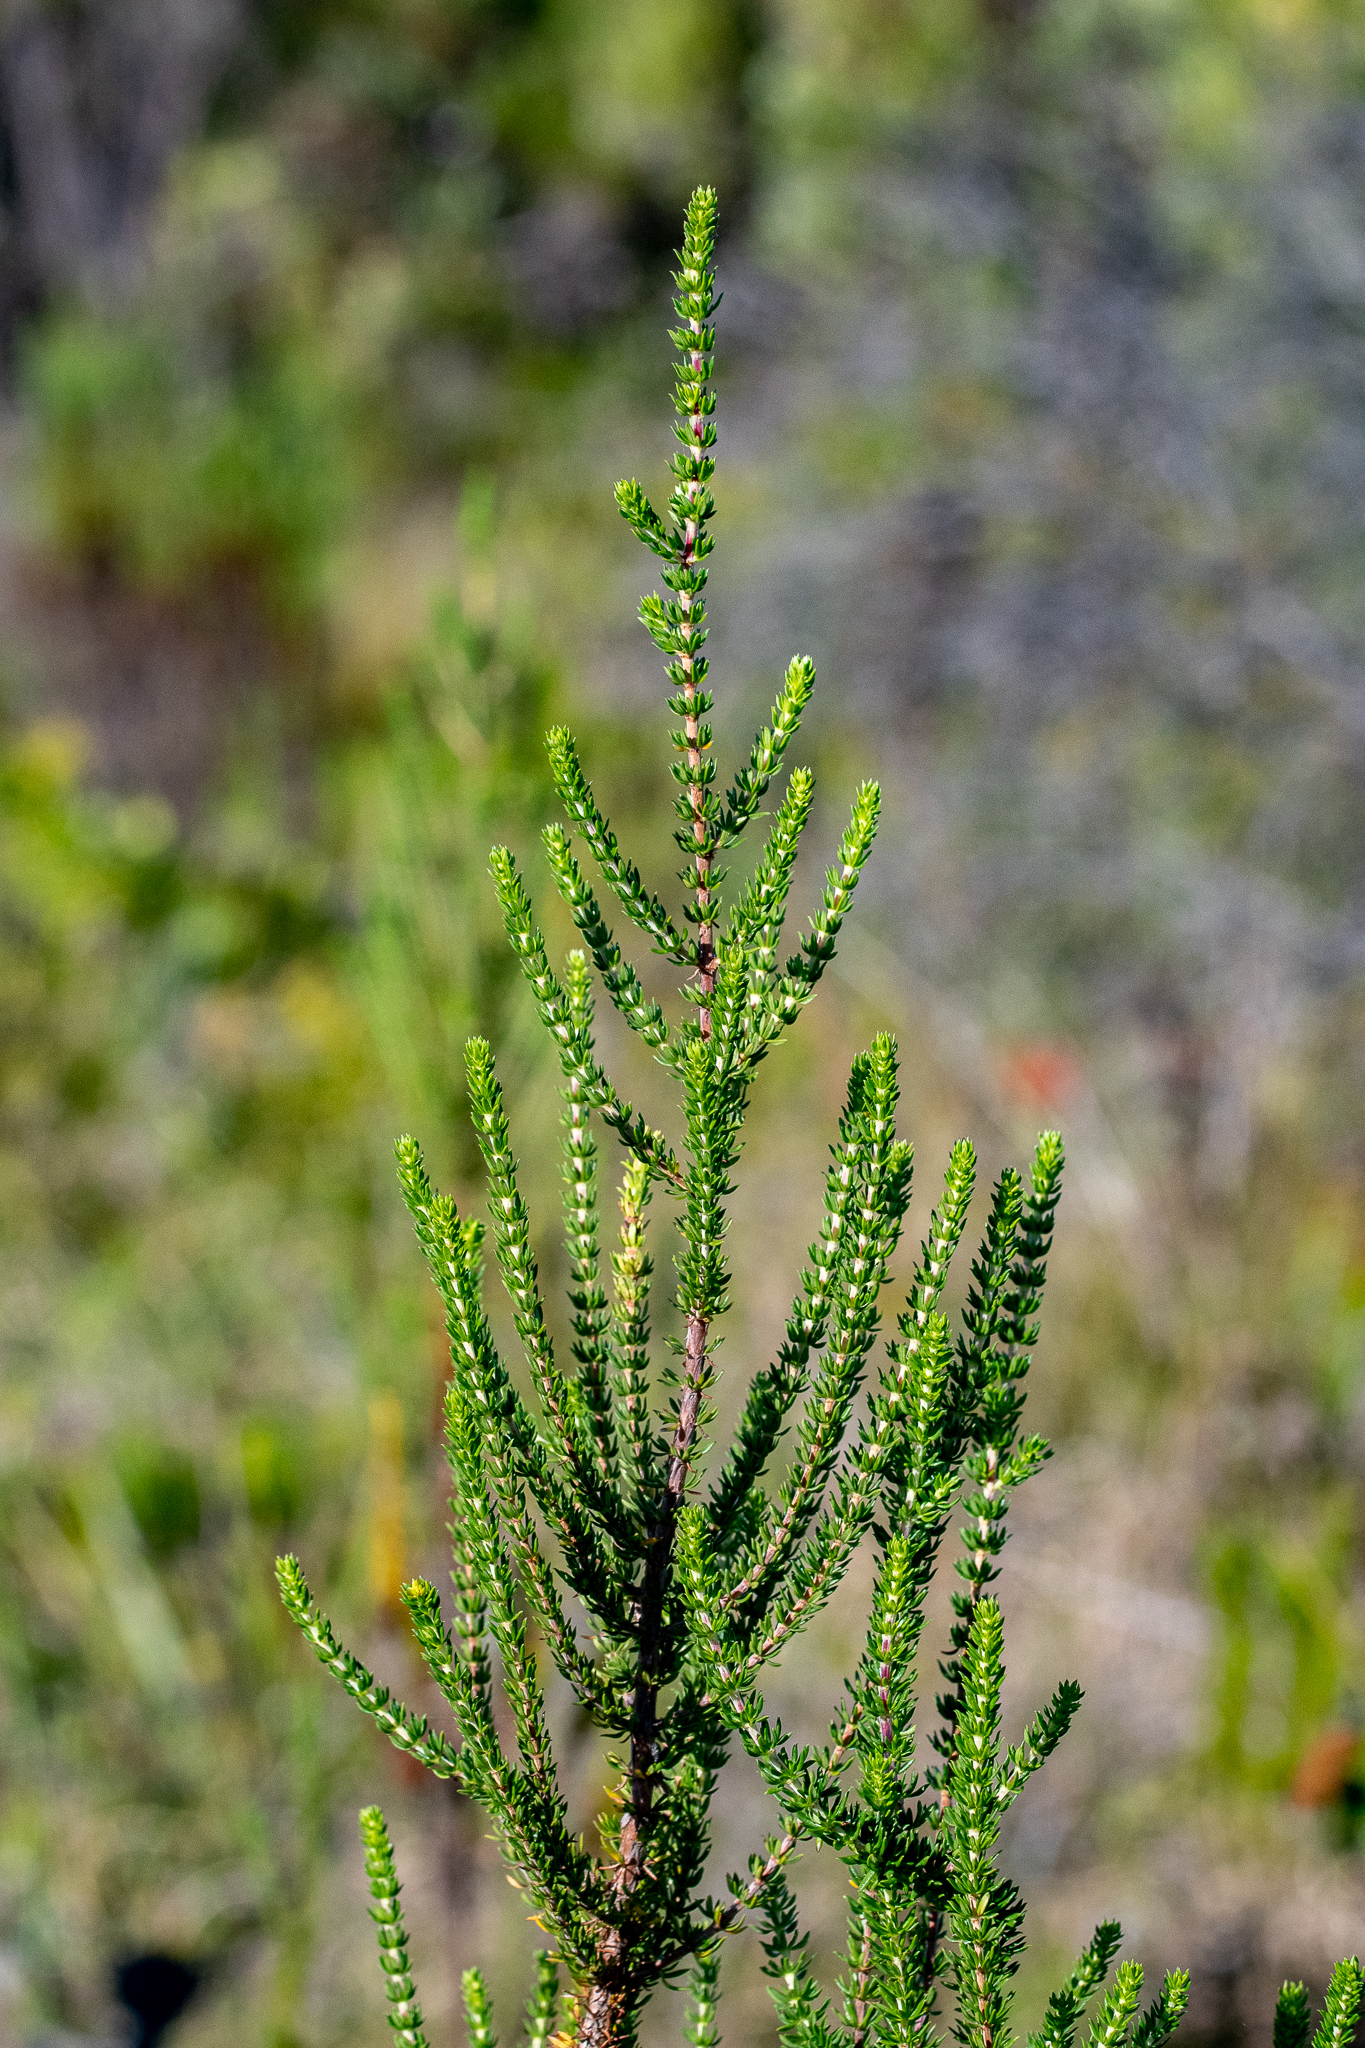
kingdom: Plantae
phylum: Tracheophyta
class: Magnoliopsida
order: Gentianales
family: Rubiaceae
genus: Anthospermum
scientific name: Anthospermum aethiopicum
